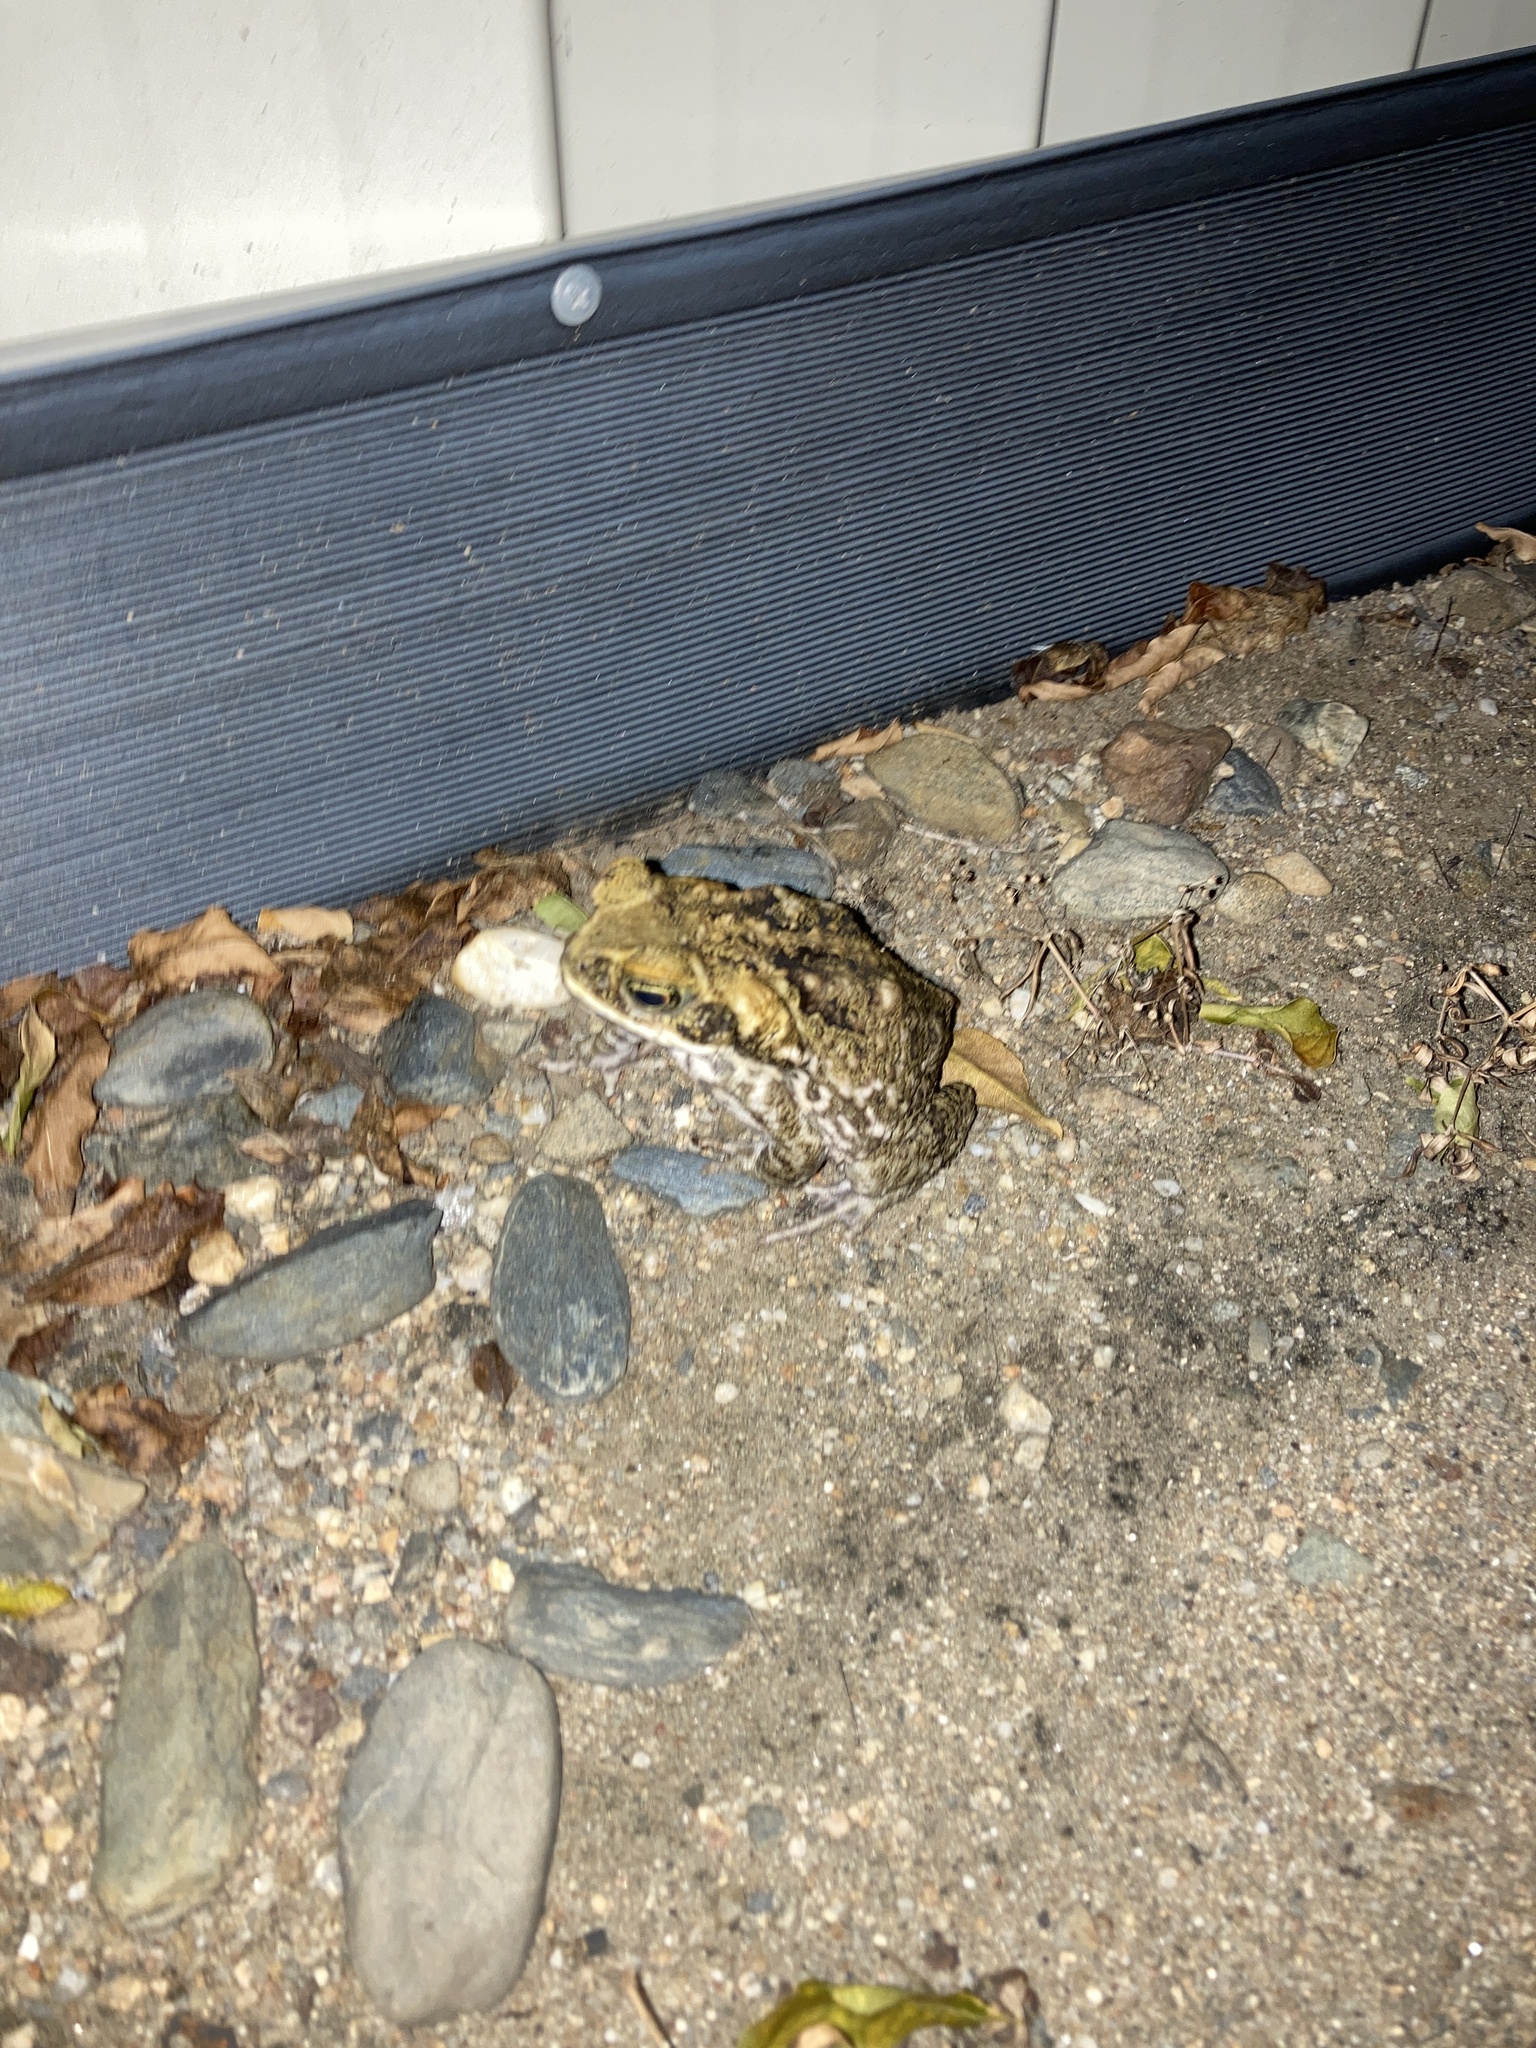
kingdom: Animalia
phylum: Chordata
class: Amphibia
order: Anura
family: Bufonidae
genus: Rhinella
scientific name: Rhinella marina
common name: Cane toad
